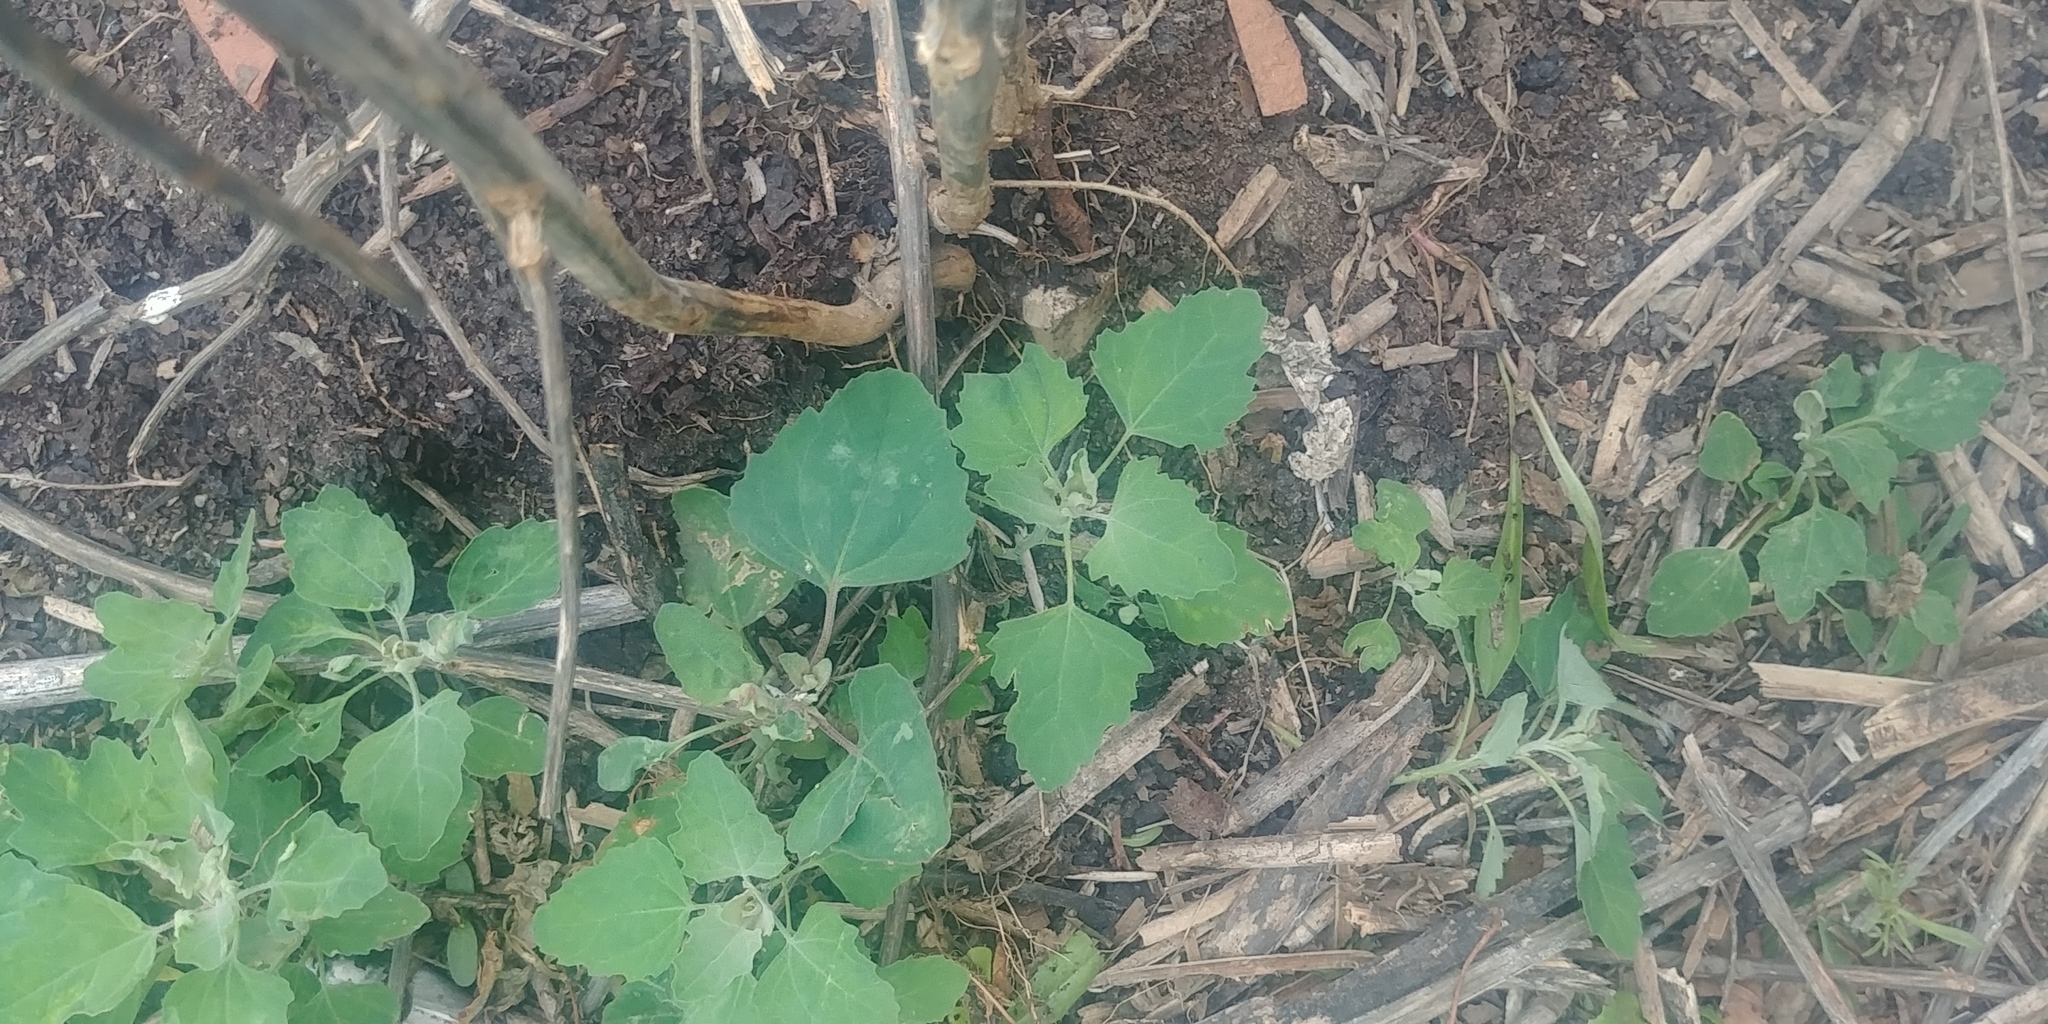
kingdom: Plantae
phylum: Tracheophyta
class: Magnoliopsida
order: Caryophyllales
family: Amaranthaceae
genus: Chenopodium
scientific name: Chenopodium album
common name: Fat-hen
